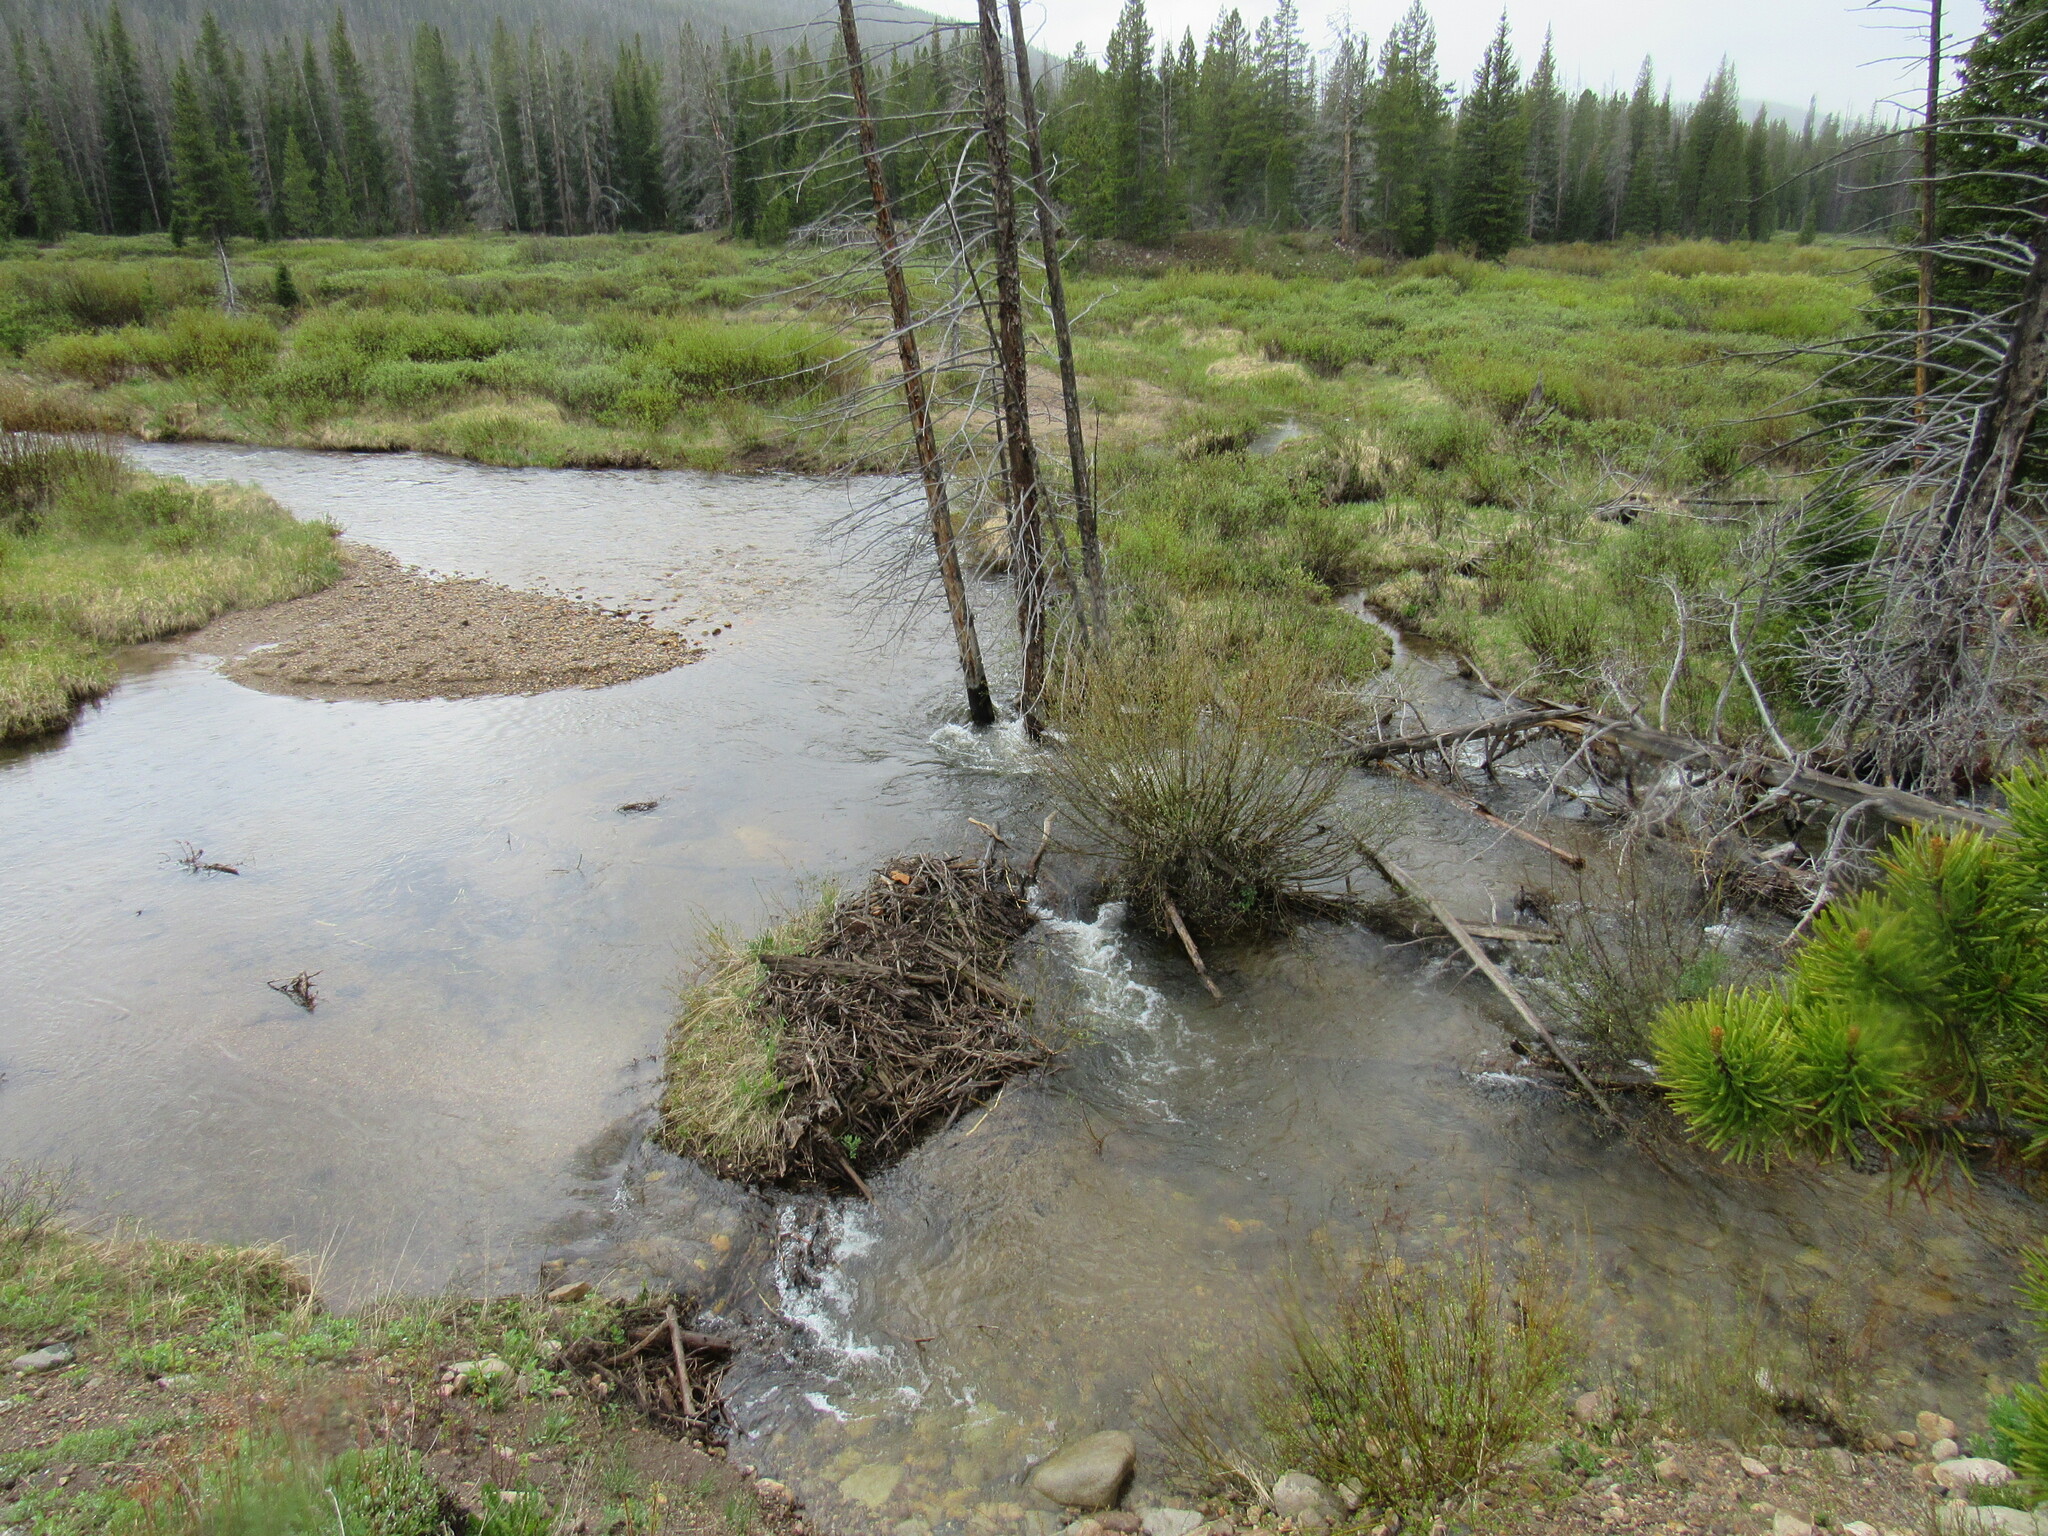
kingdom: Animalia
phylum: Chordata
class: Mammalia
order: Rodentia
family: Castoridae
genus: Castor
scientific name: Castor canadensis
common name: American beaver
